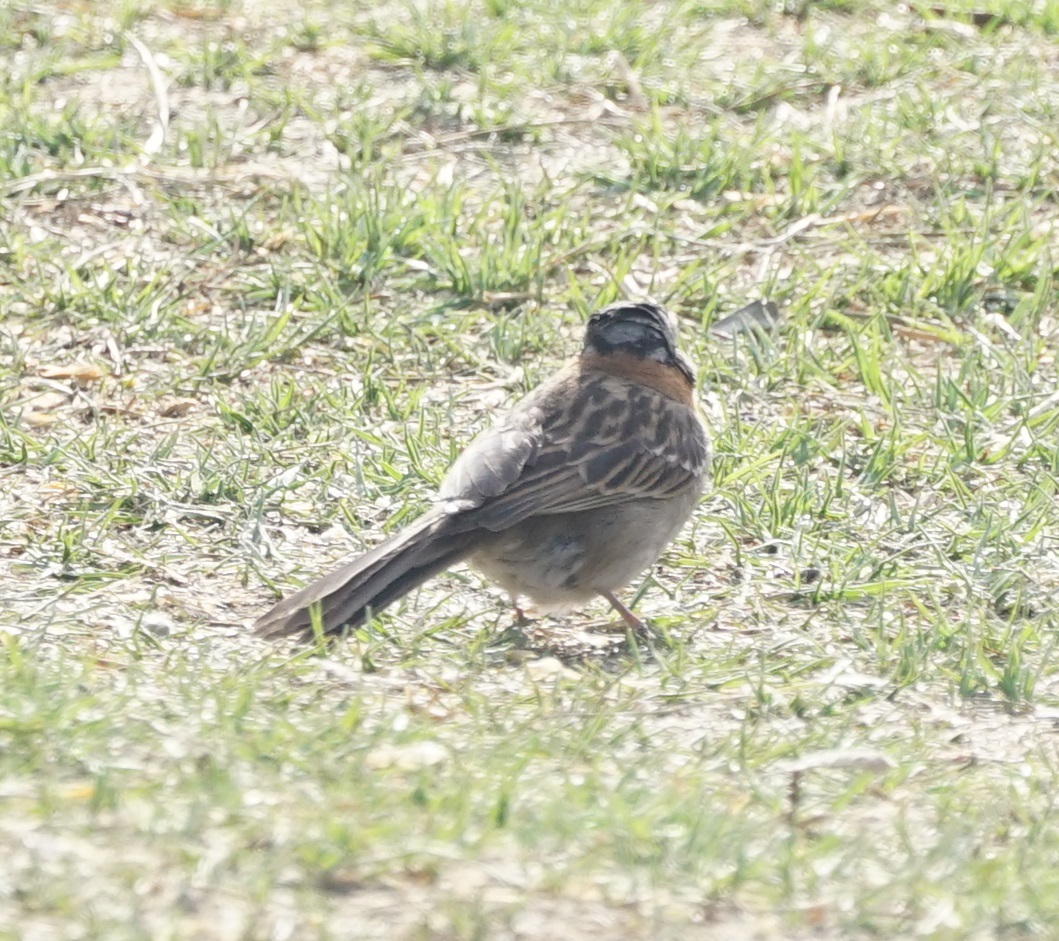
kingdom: Animalia
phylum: Chordata
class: Aves
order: Passeriformes
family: Passerellidae
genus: Zonotrichia
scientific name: Zonotrichia capensis
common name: Rufous-collared sparrow
